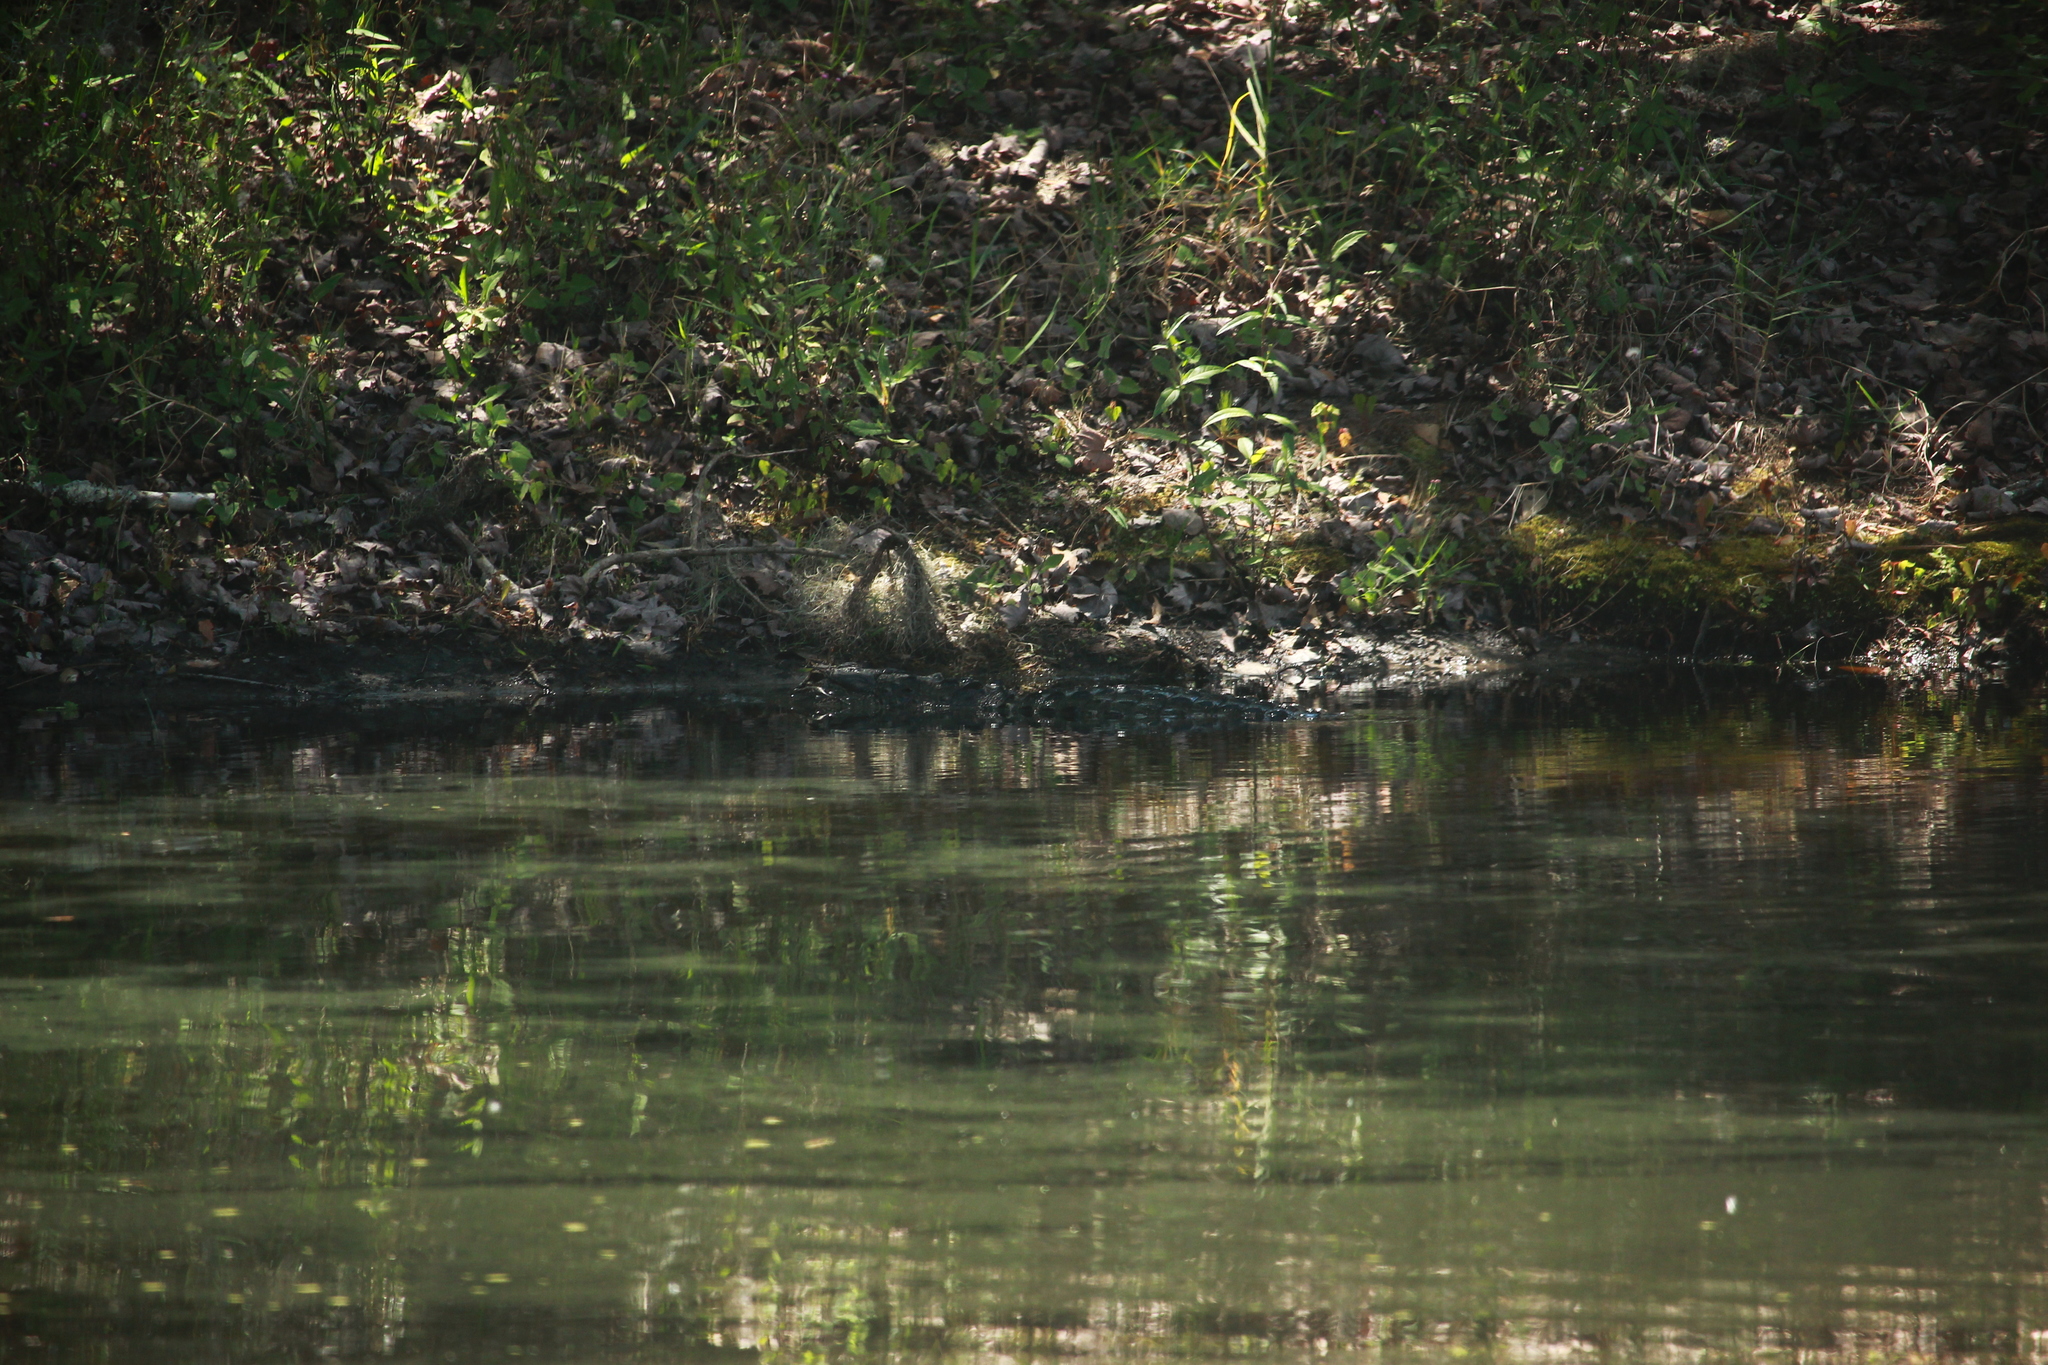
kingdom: Animalia
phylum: Chordata
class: Crocodylia
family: Alligatoridae
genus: Alligator
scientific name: Alligator mississippiensis
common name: American alligator
